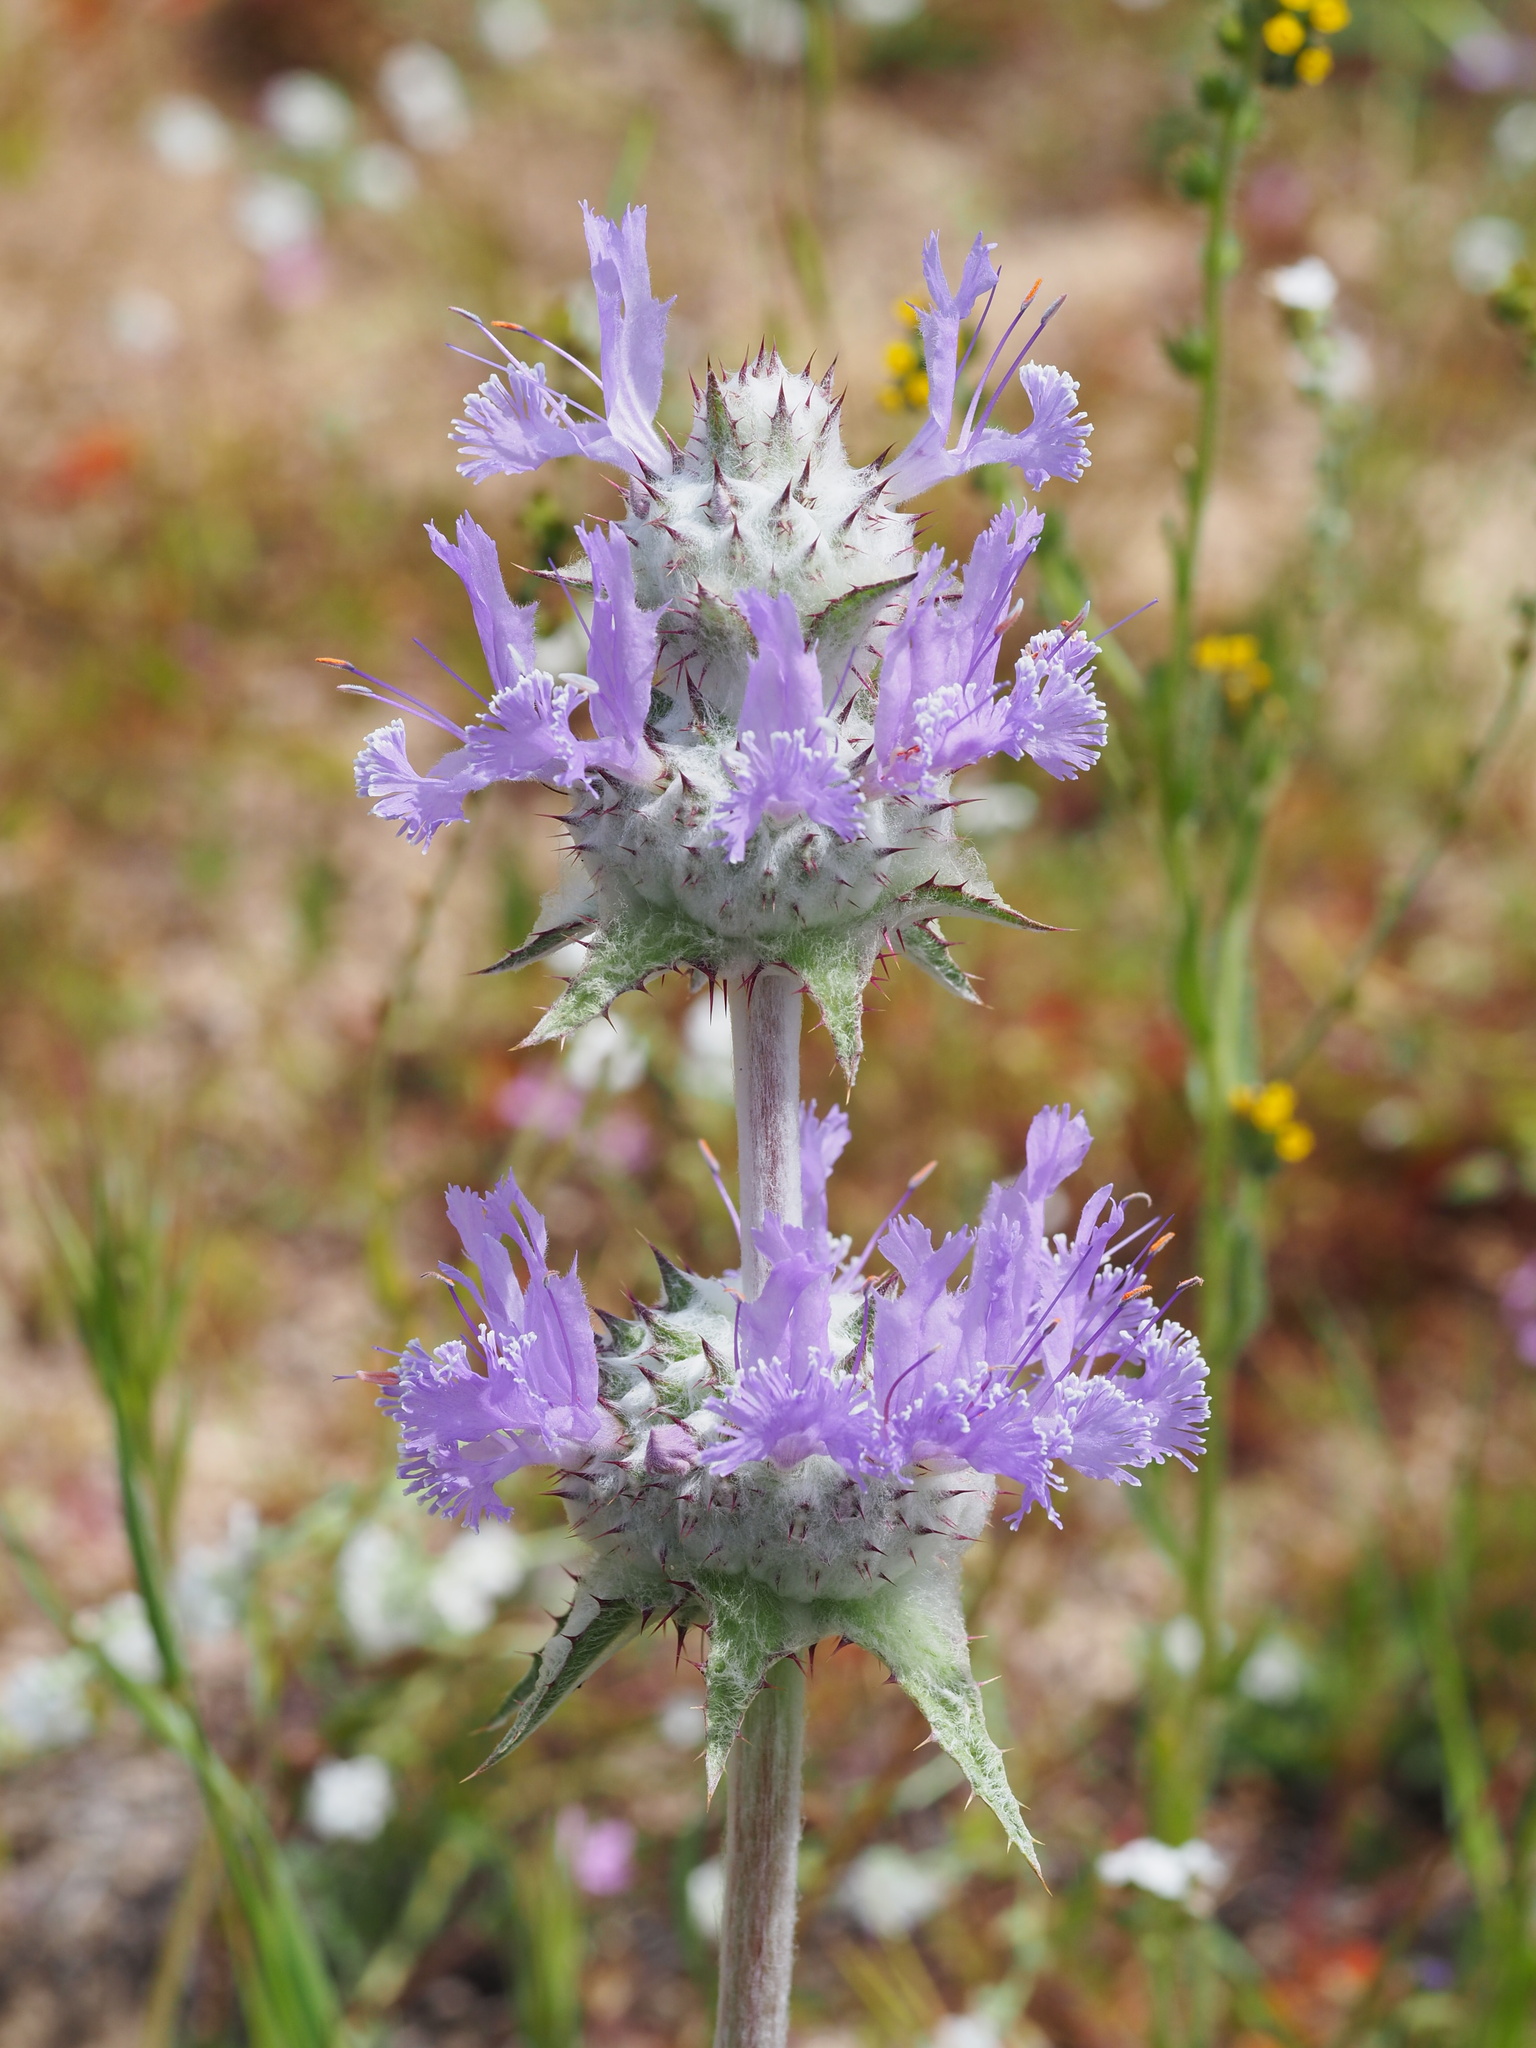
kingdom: Plantae
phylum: Tracheophyta
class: Magnoliopsida
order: Lamiales
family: Lamiaceae
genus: Salvia
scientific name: Salvia carduacea
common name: Thistle sage
